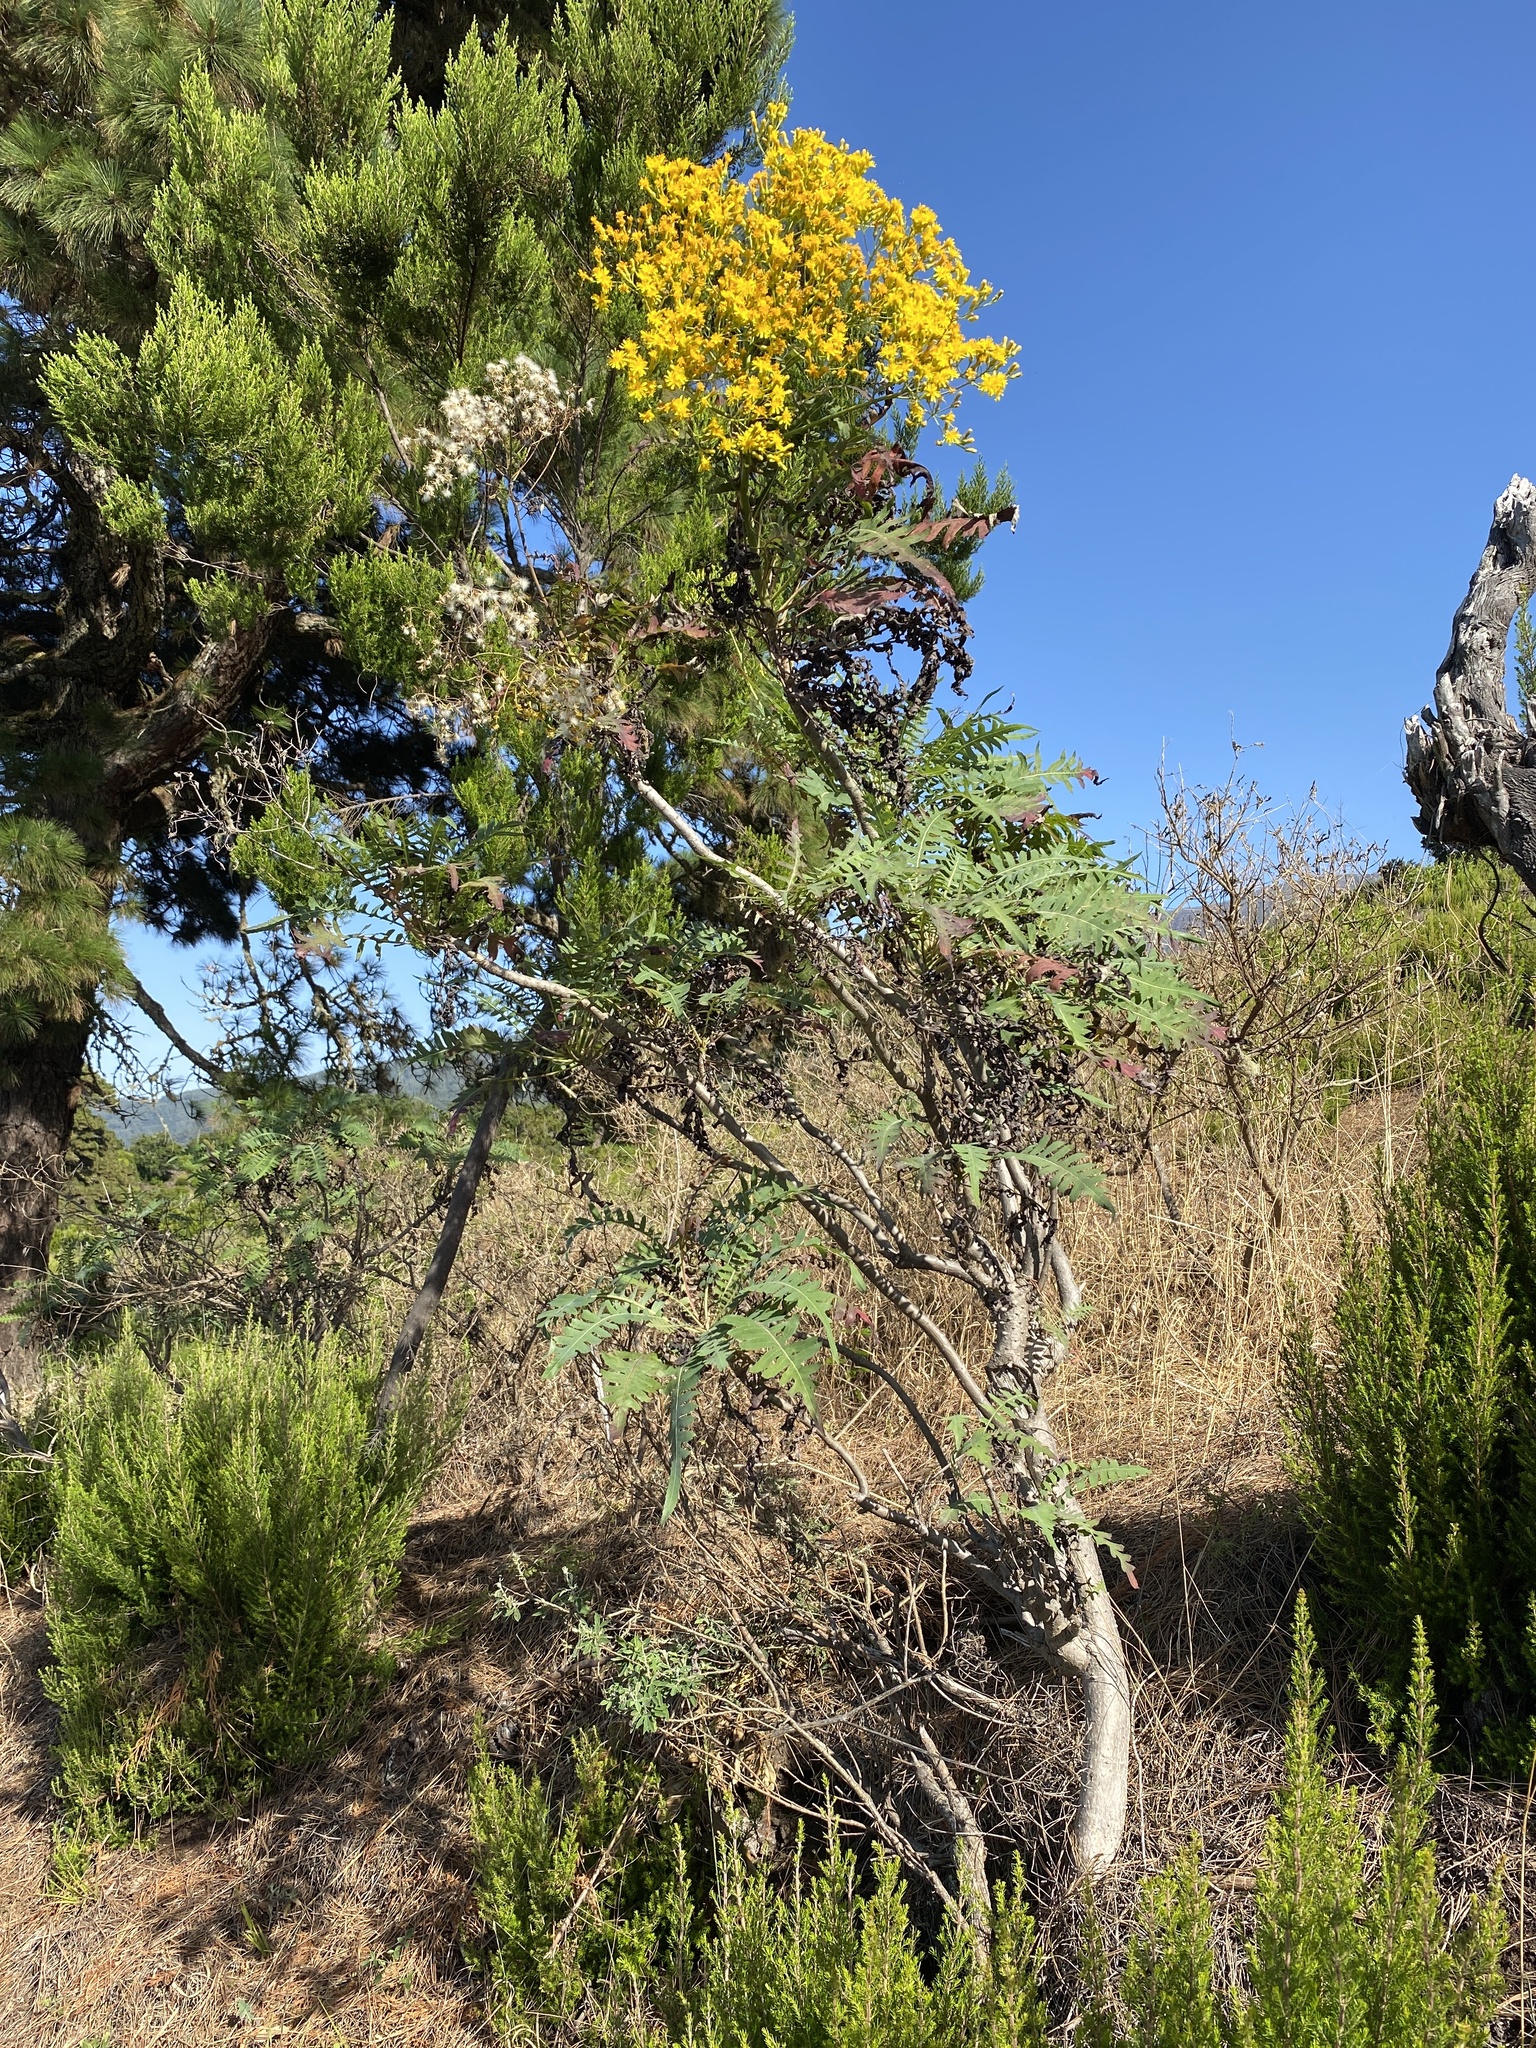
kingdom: Plantae
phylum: Tracheophyta
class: Magnoliopsida
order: Asterales
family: Asteraceae
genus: Sonchus
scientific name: Sonchus palmensis
